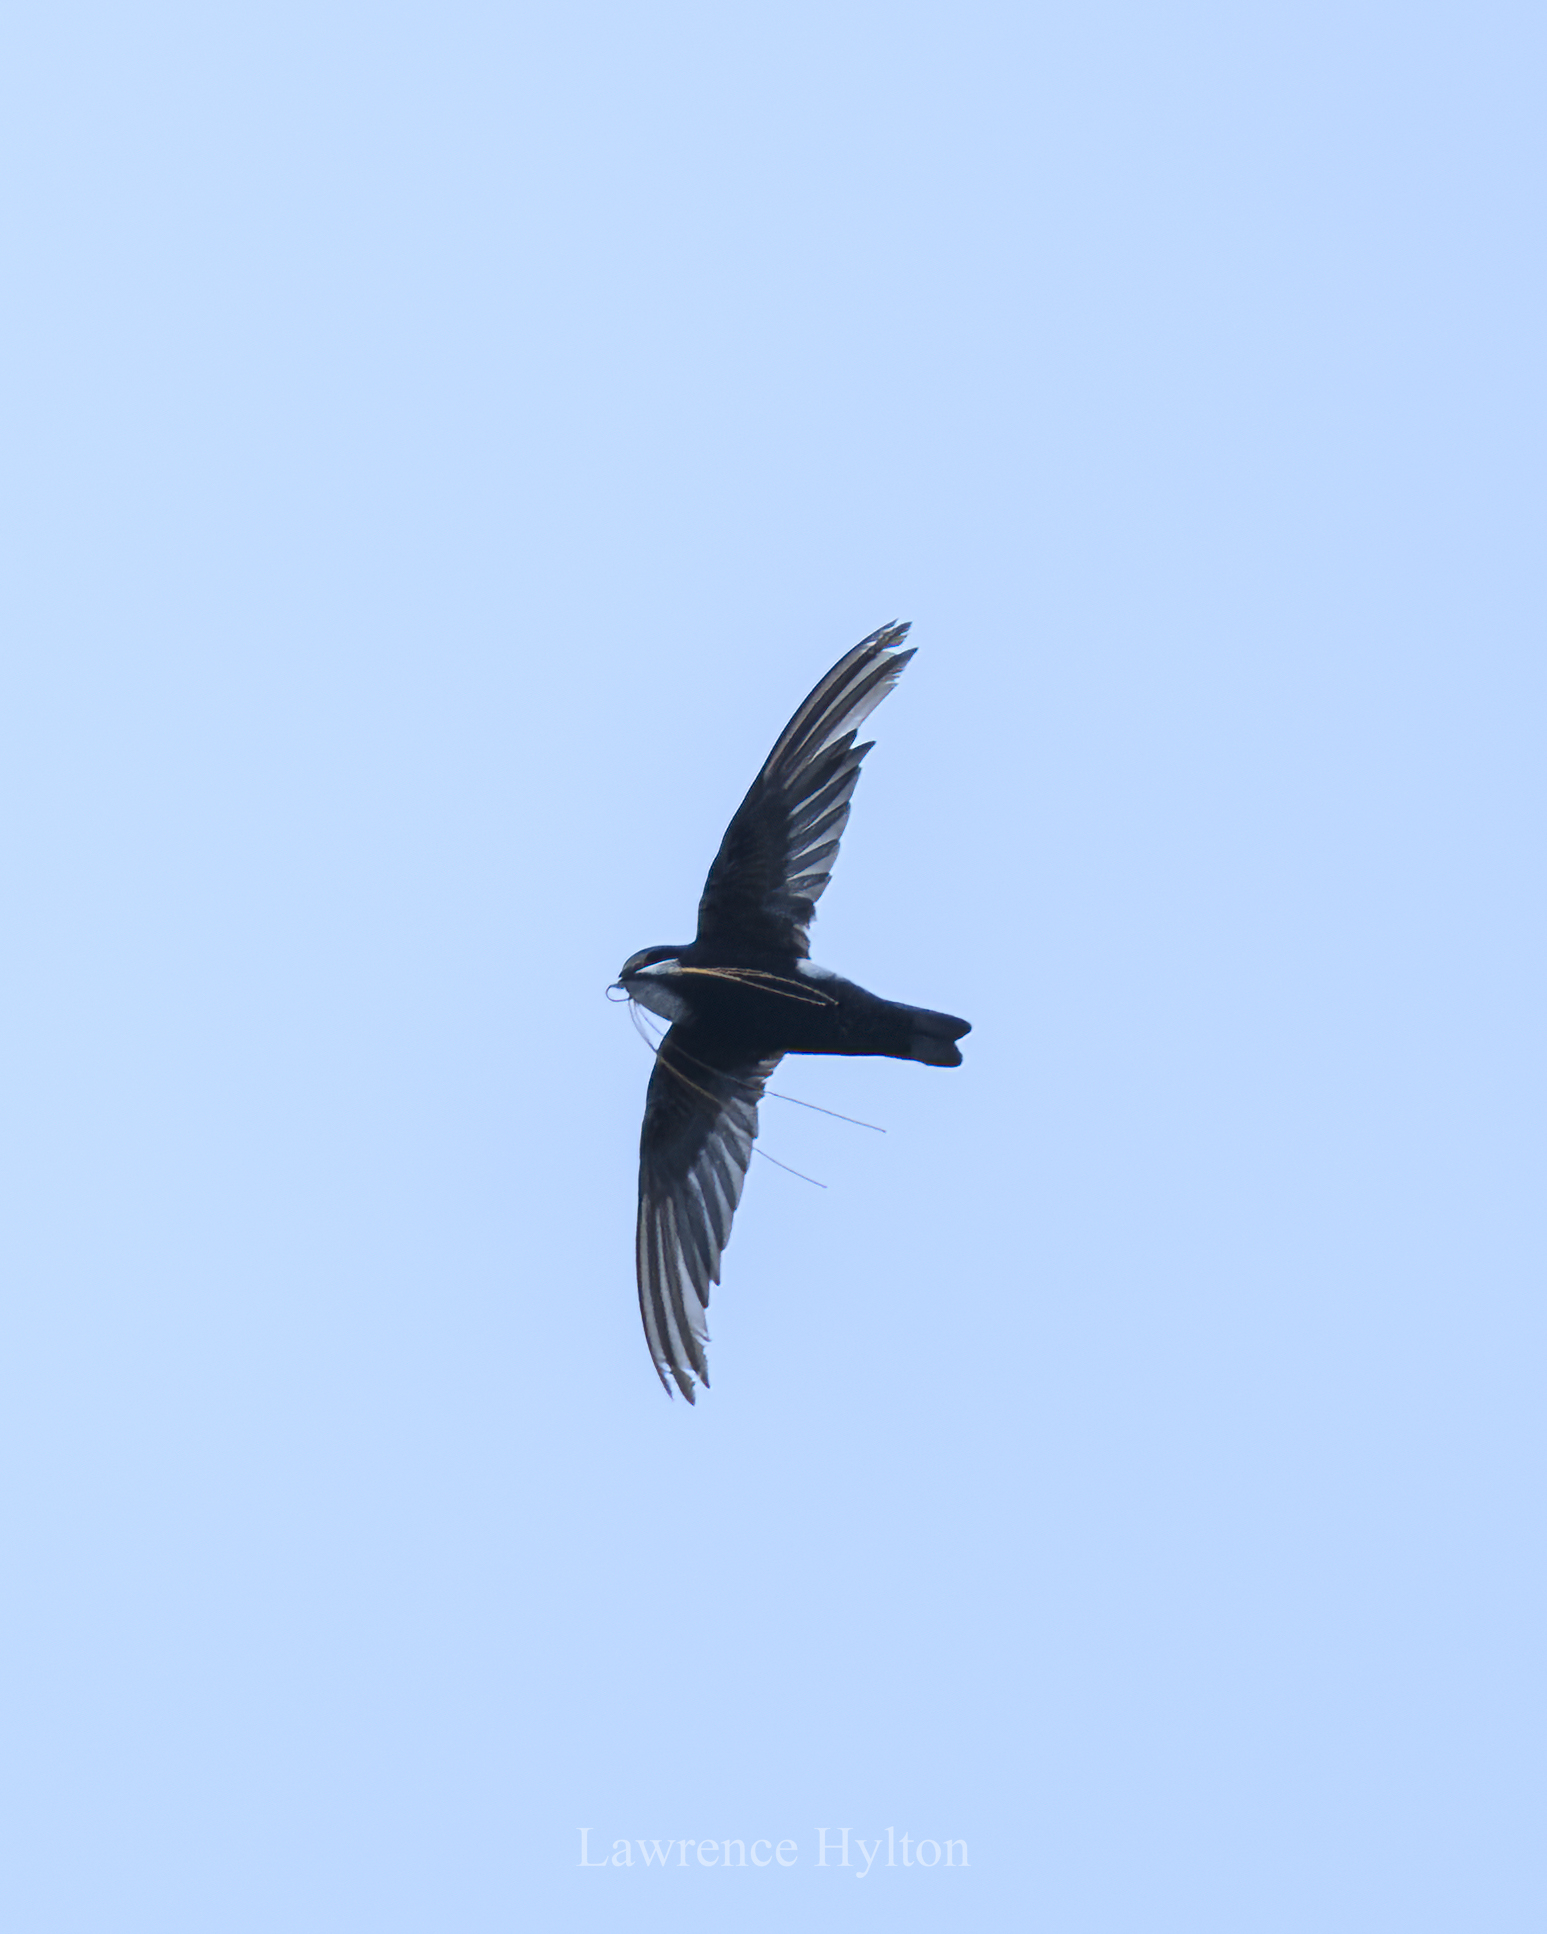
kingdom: Animalia
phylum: Chordata
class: Aves
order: Apodiformes
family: Apodidae
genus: Apus
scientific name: Apus nipalensis
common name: House swift
